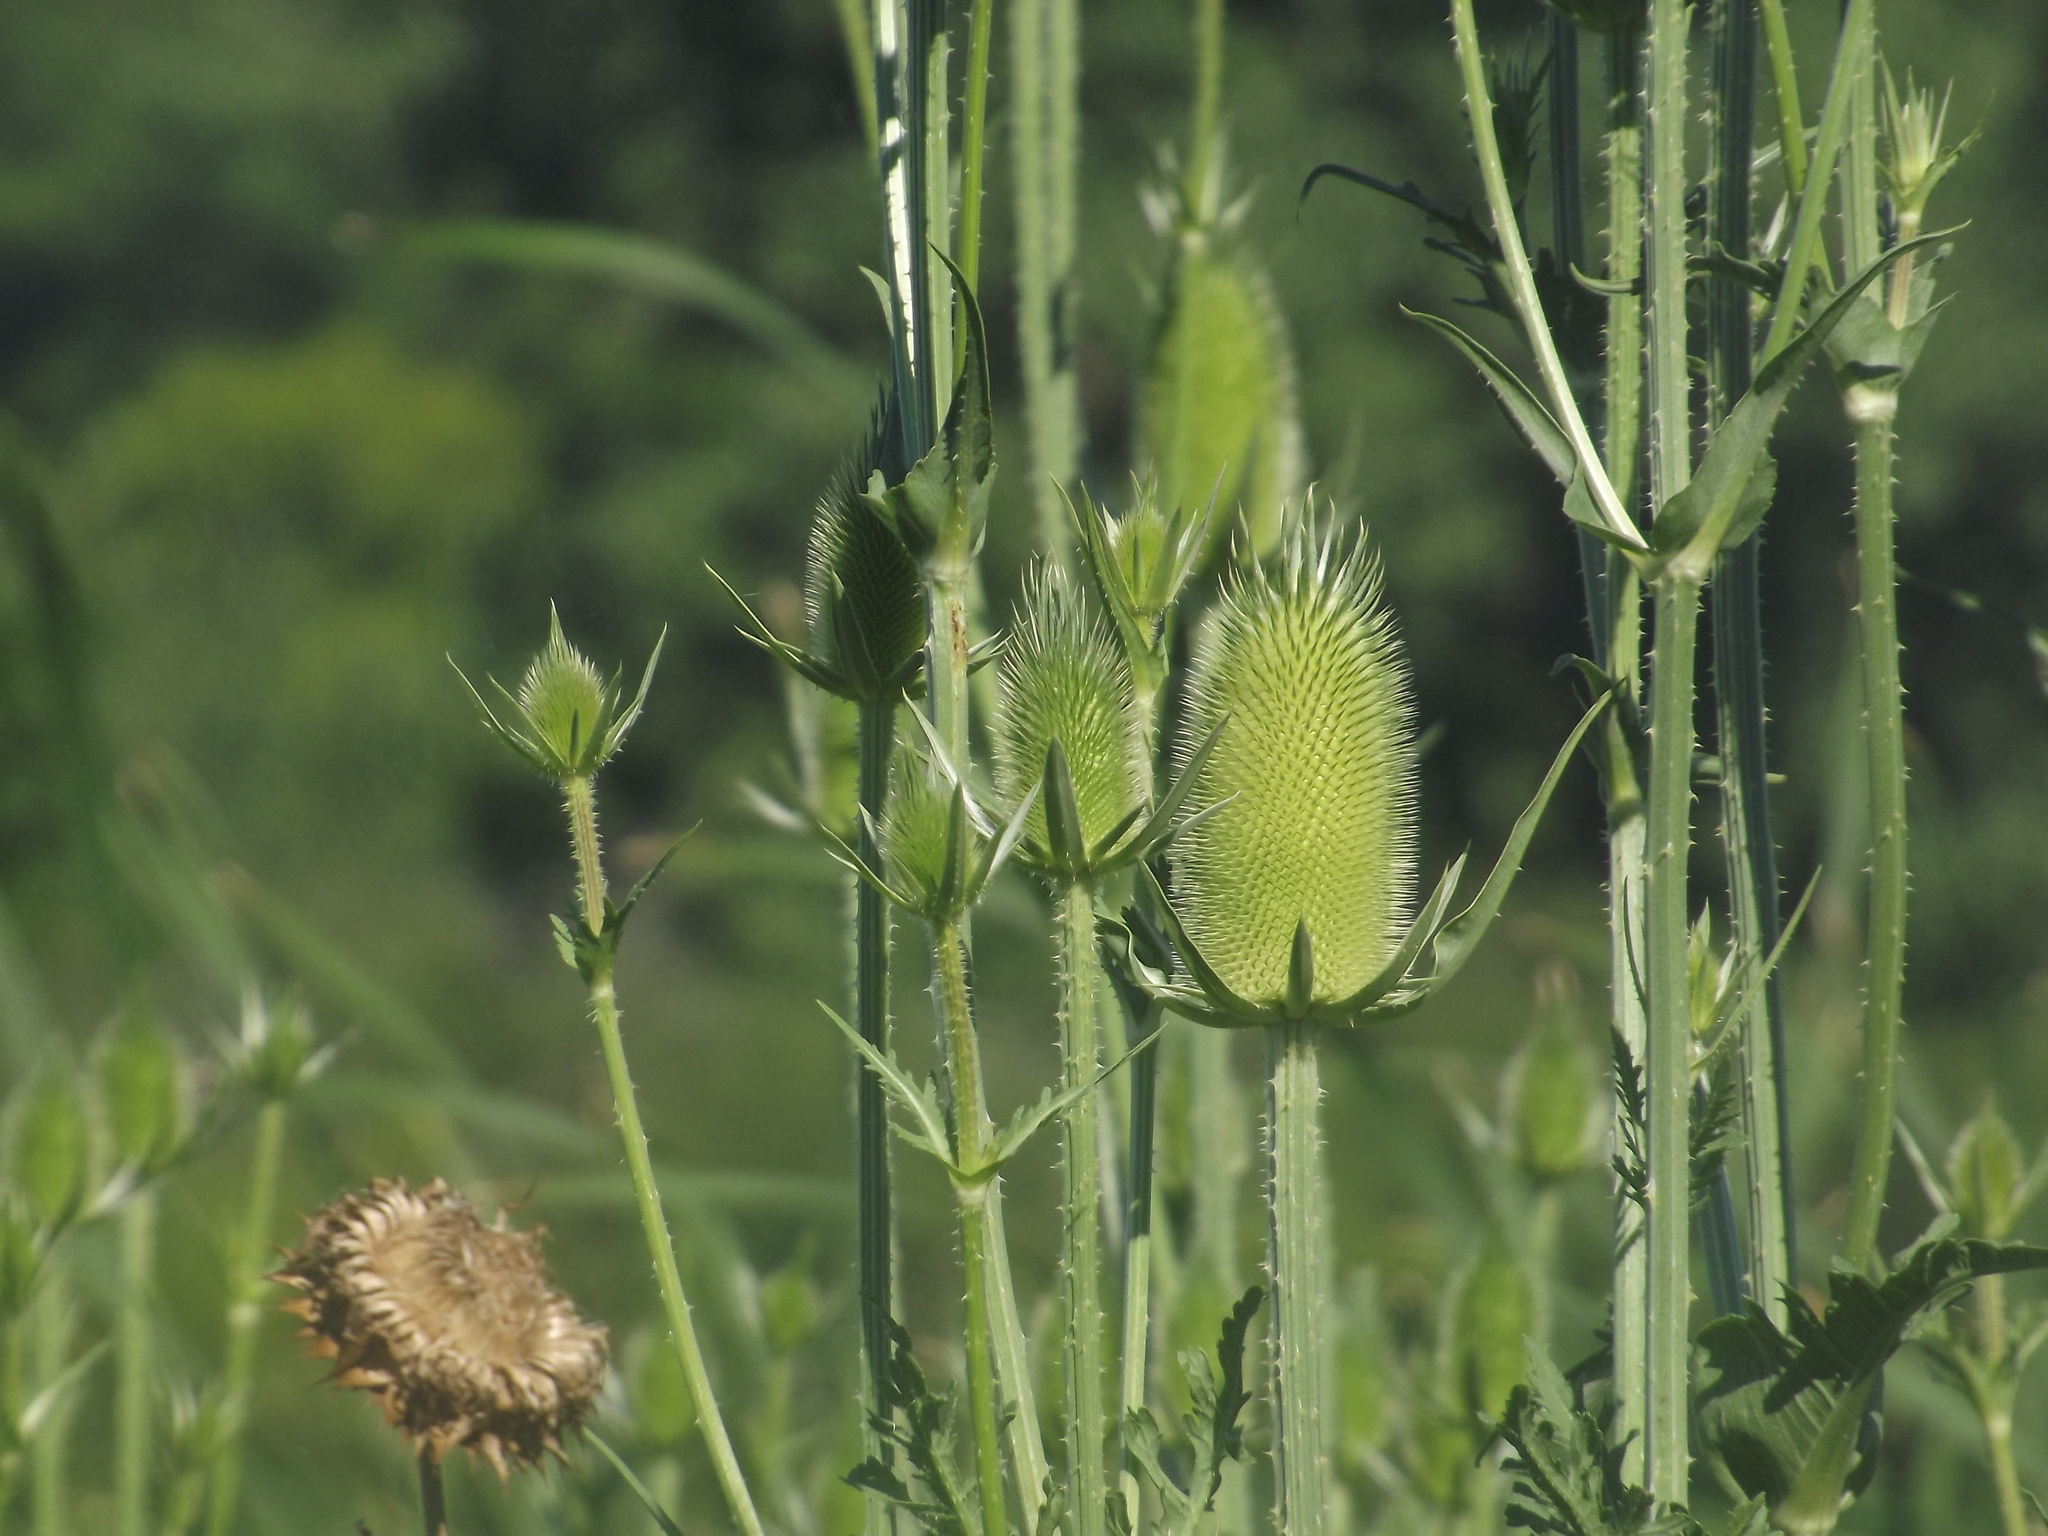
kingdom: Plantae
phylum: Tracheophyta
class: Magnoliopsida
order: Dipsacales
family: Caprifoliaceae
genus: Dipsacus
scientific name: Dipsacus laciniatus
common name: Cut-leaved teasel
